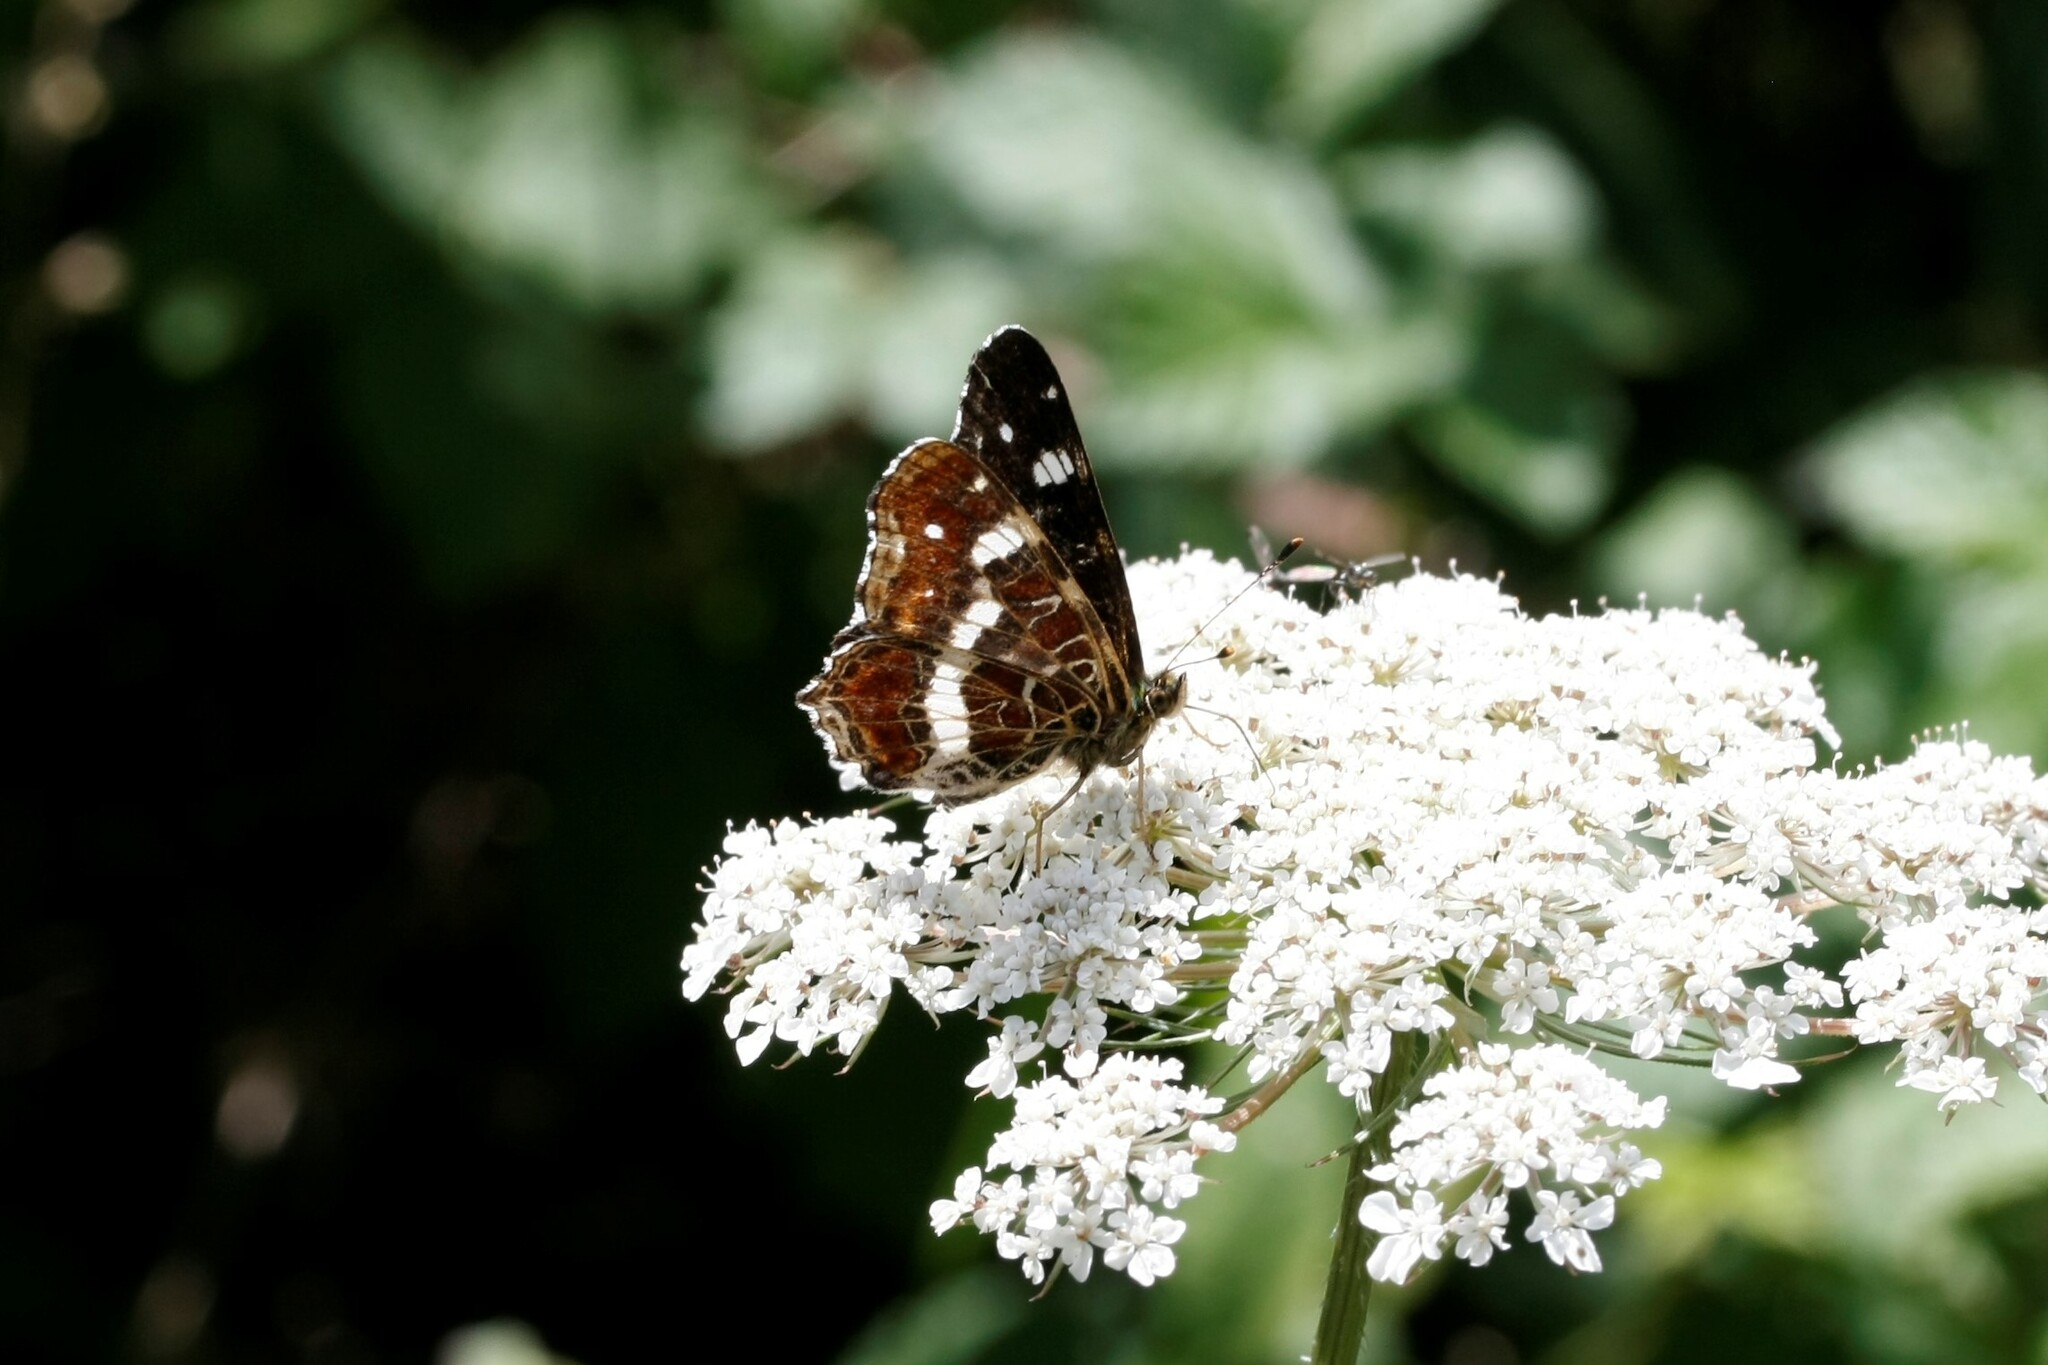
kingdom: Animalia
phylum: Arthropoda
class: Insecta
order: Lepidoptera
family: Nymphalidae
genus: Araschnia
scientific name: Araschnia levana
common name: Map butterfly
